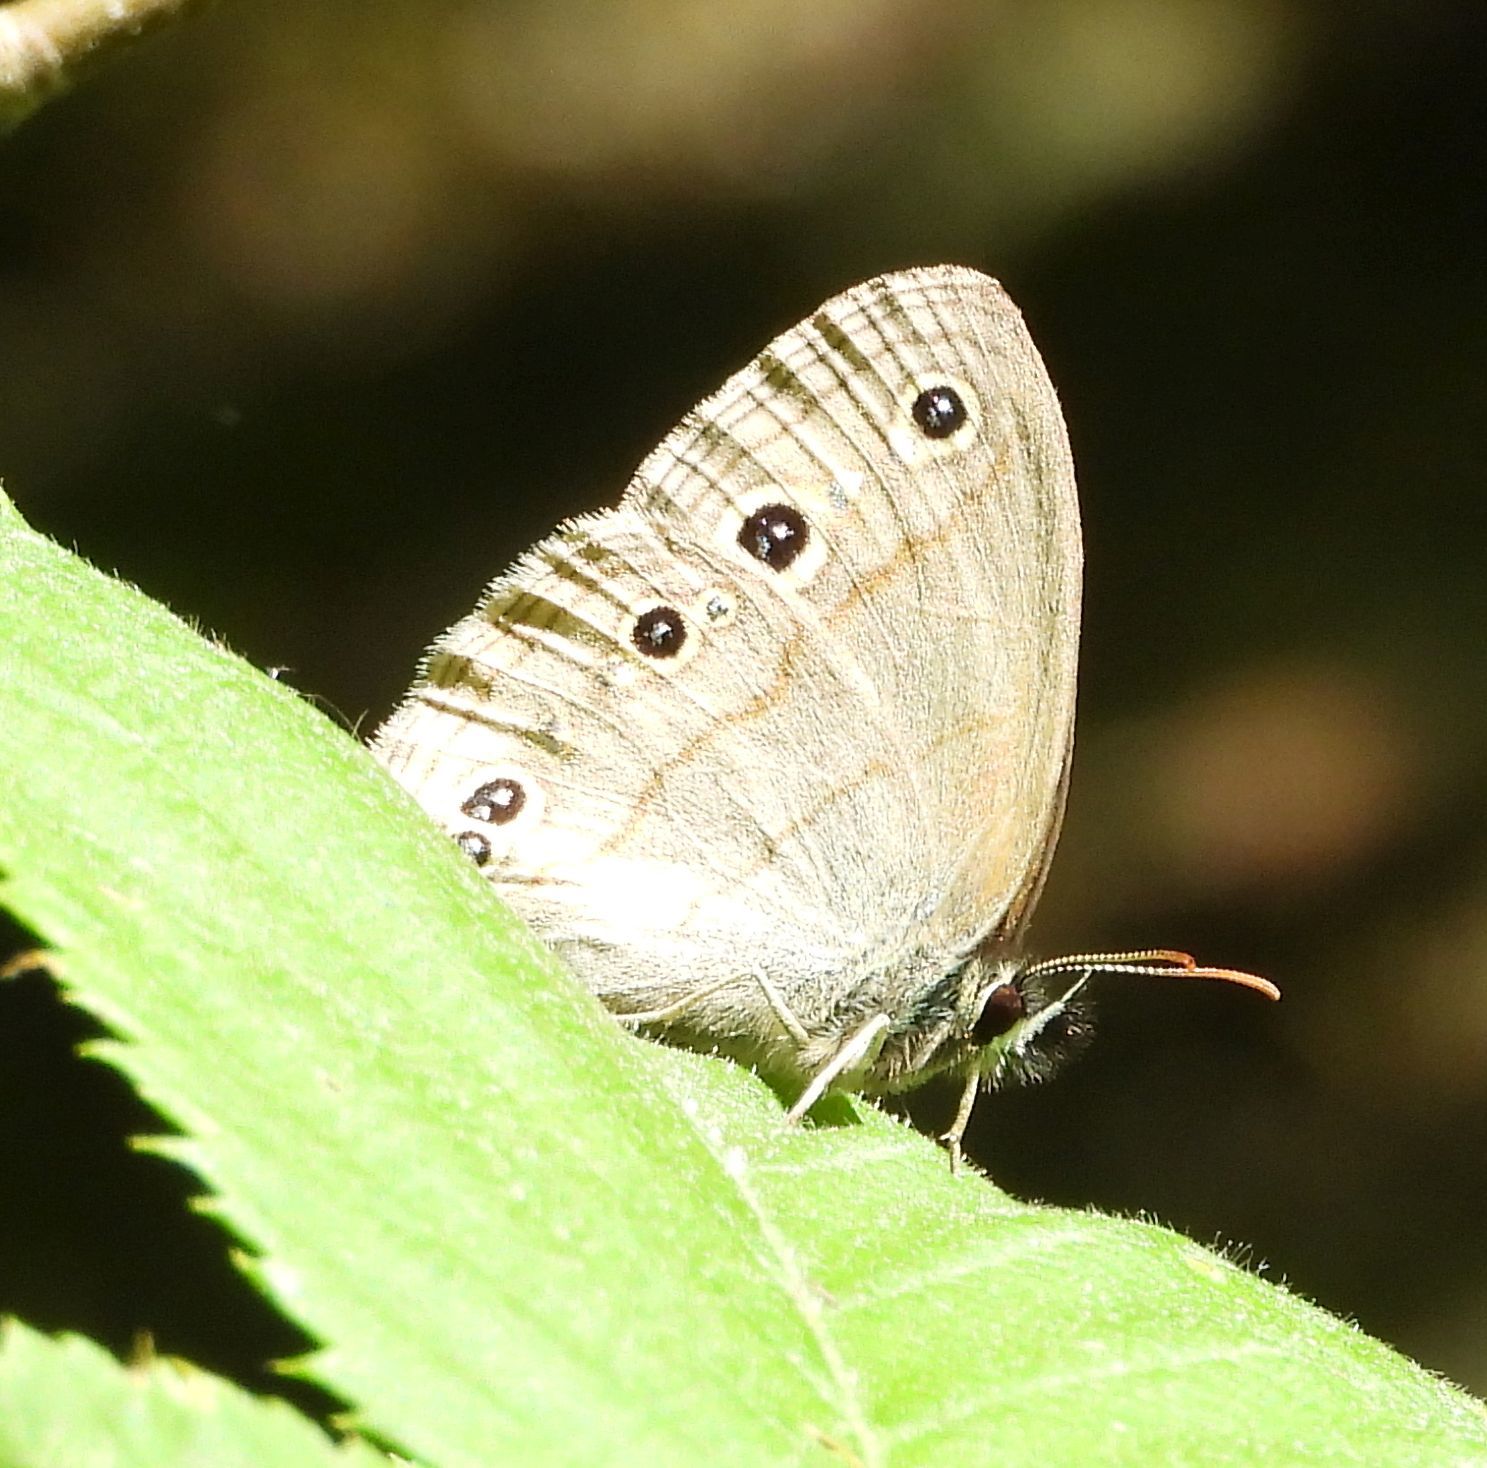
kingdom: Animalia
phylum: Arthropoda
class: Insecta
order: Lepidoptera
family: Nymphalidae
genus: Euptychia
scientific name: Euptychia cymela
